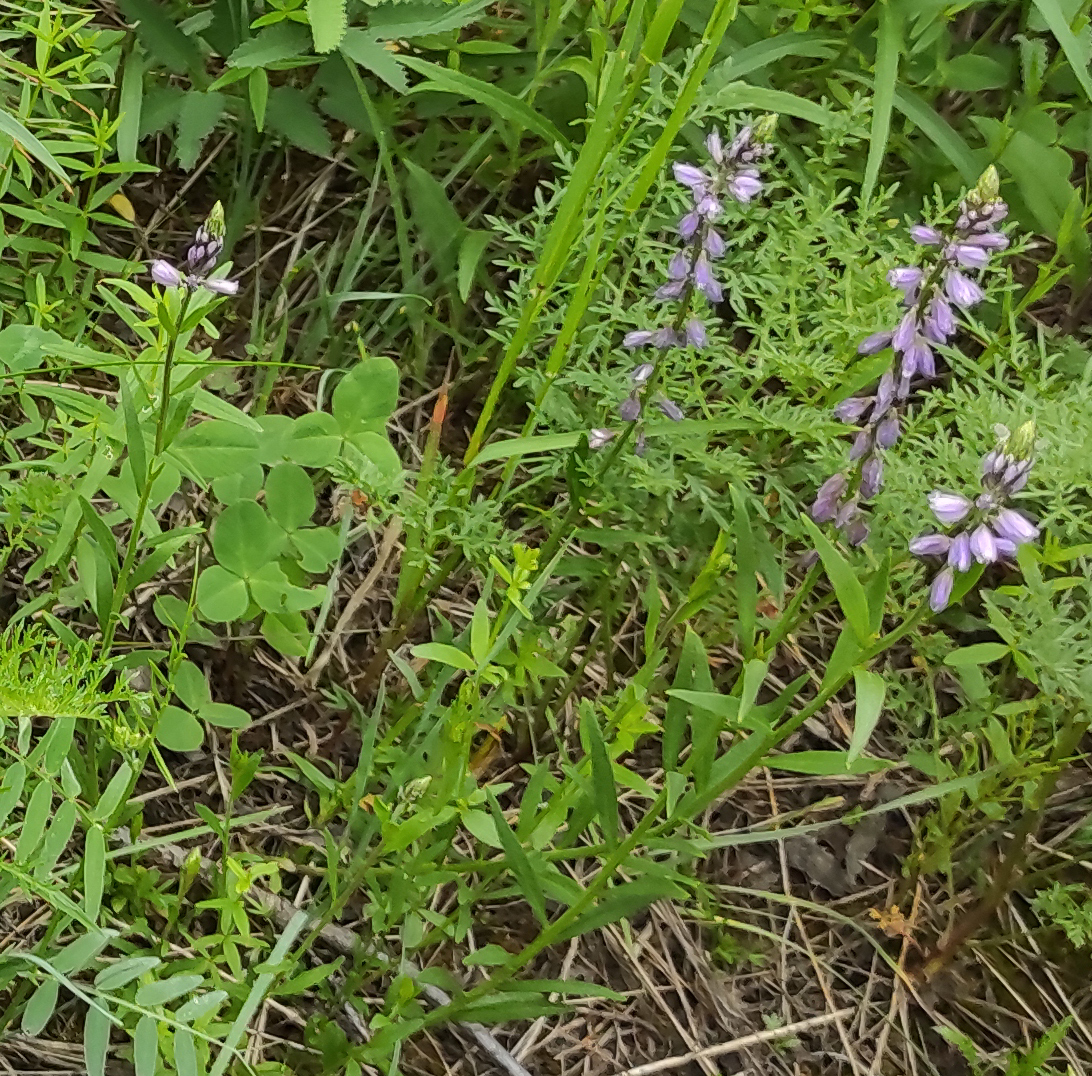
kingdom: Plantae
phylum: Tracheophyta
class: Magnoliopsida
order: Fabales
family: Polygalaceae
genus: Polygala
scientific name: Polygala comosa
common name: Tufted milkwort
